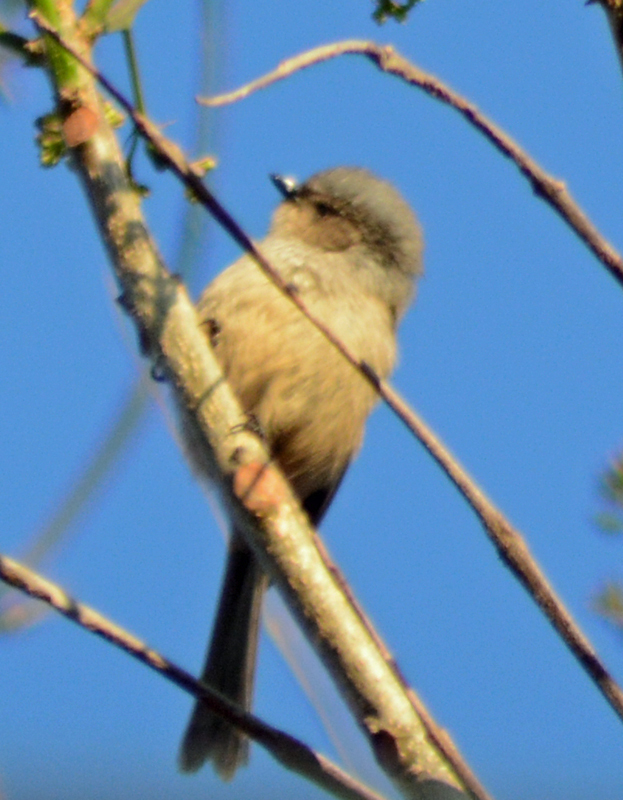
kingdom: Animalia
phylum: Chordata
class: Aves
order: Passeriformes
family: Aegithalidae
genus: Psaltriparus
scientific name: Psaltriparus minimus
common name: American bushtit
